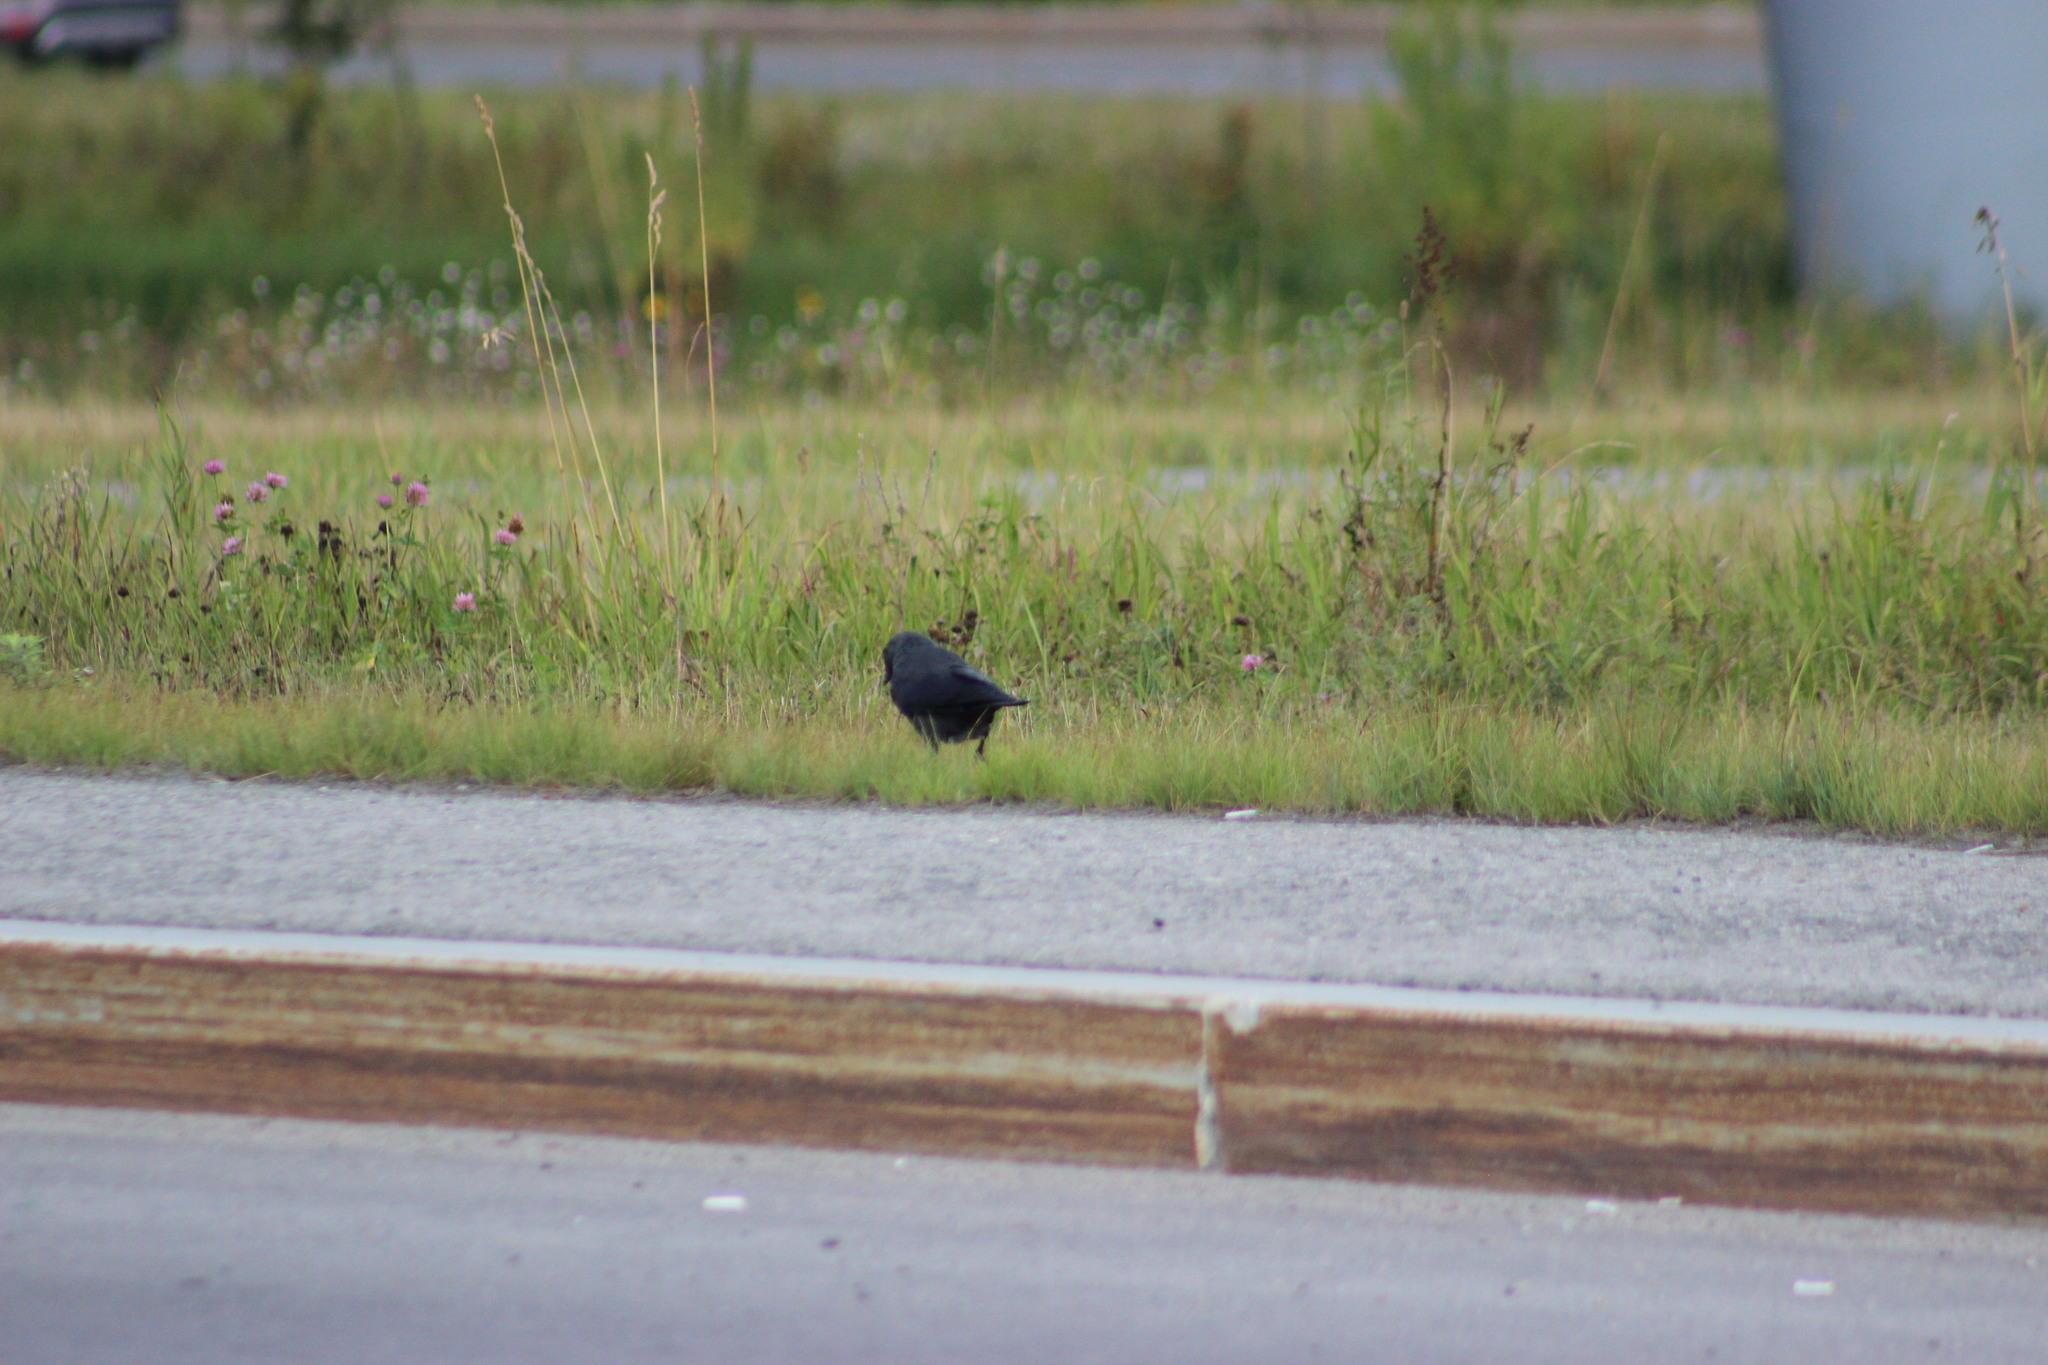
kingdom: Animalia
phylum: Chordata
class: Aves
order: Passeriformes
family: Corvidae
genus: Coloeus
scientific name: Coloeus monedula
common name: Western jackdaw
